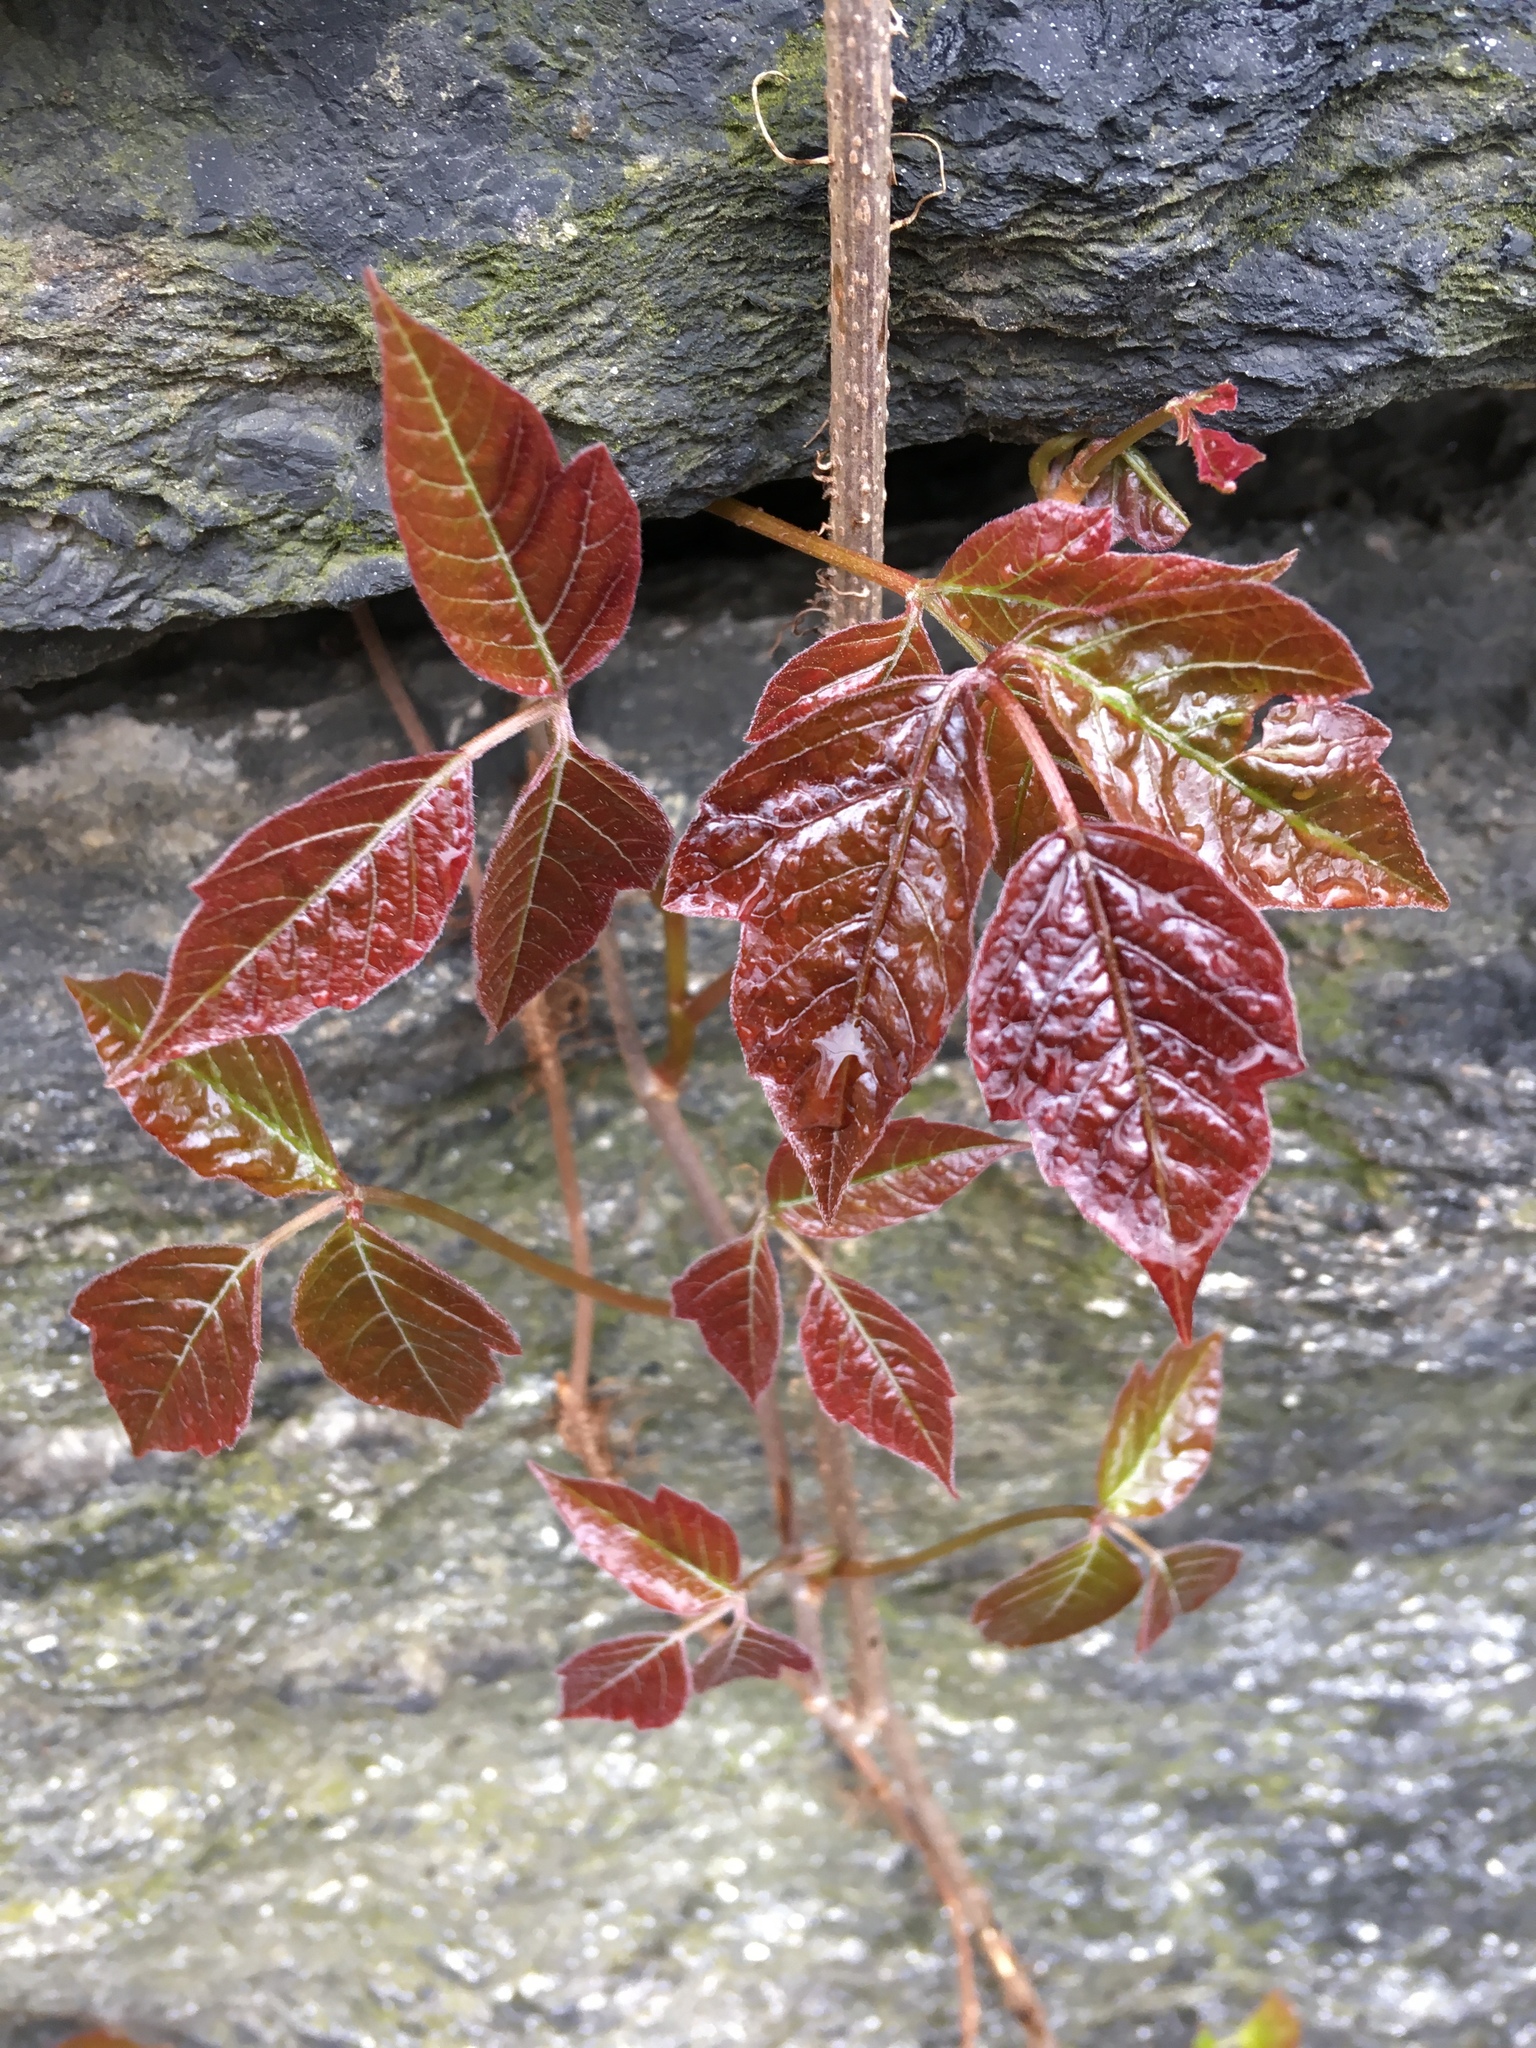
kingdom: Plantae
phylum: Tracheophyta
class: Magnoliopsida
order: Sapindales
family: Anacardiaceae
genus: Toxicodendron
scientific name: Toxicodendron radicans
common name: Poison ivy
